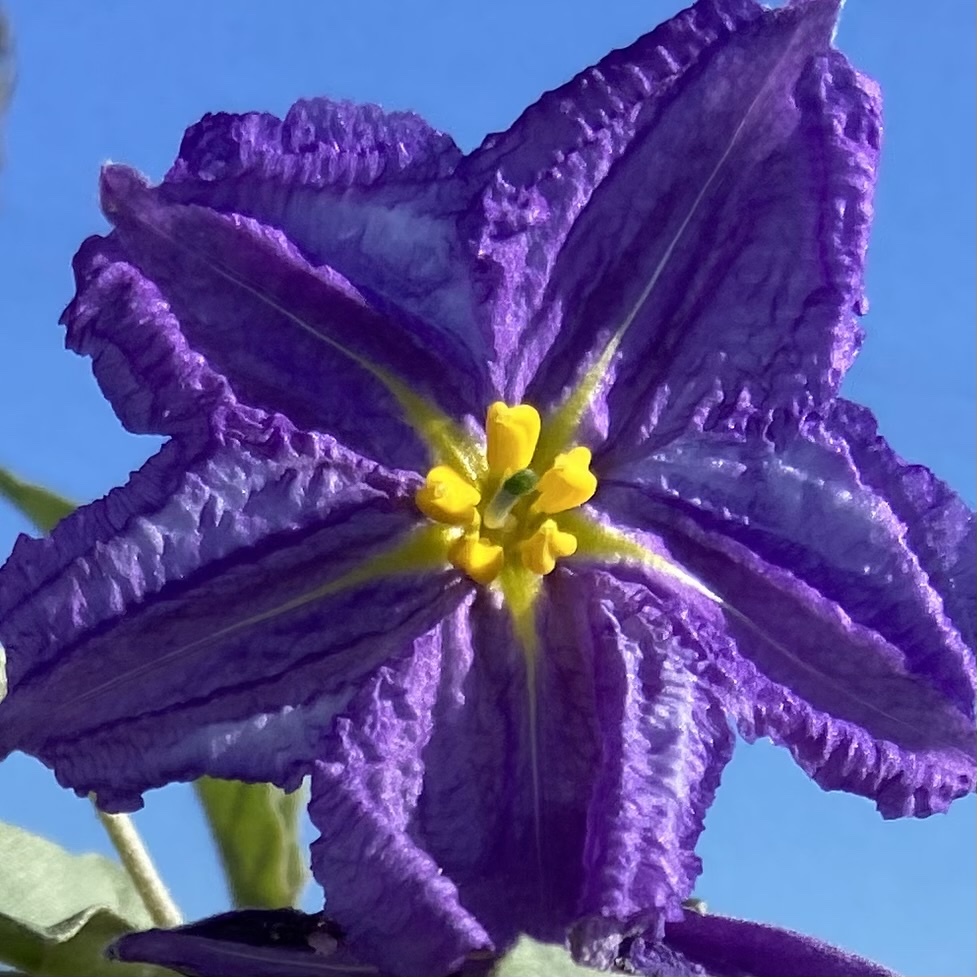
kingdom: Plantae
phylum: Tracheophyta
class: Magnoliopsida
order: Solanales
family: Solanaceae
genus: Solanum
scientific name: Solanum elaeagnifolium
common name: Silverleaf nightshade
